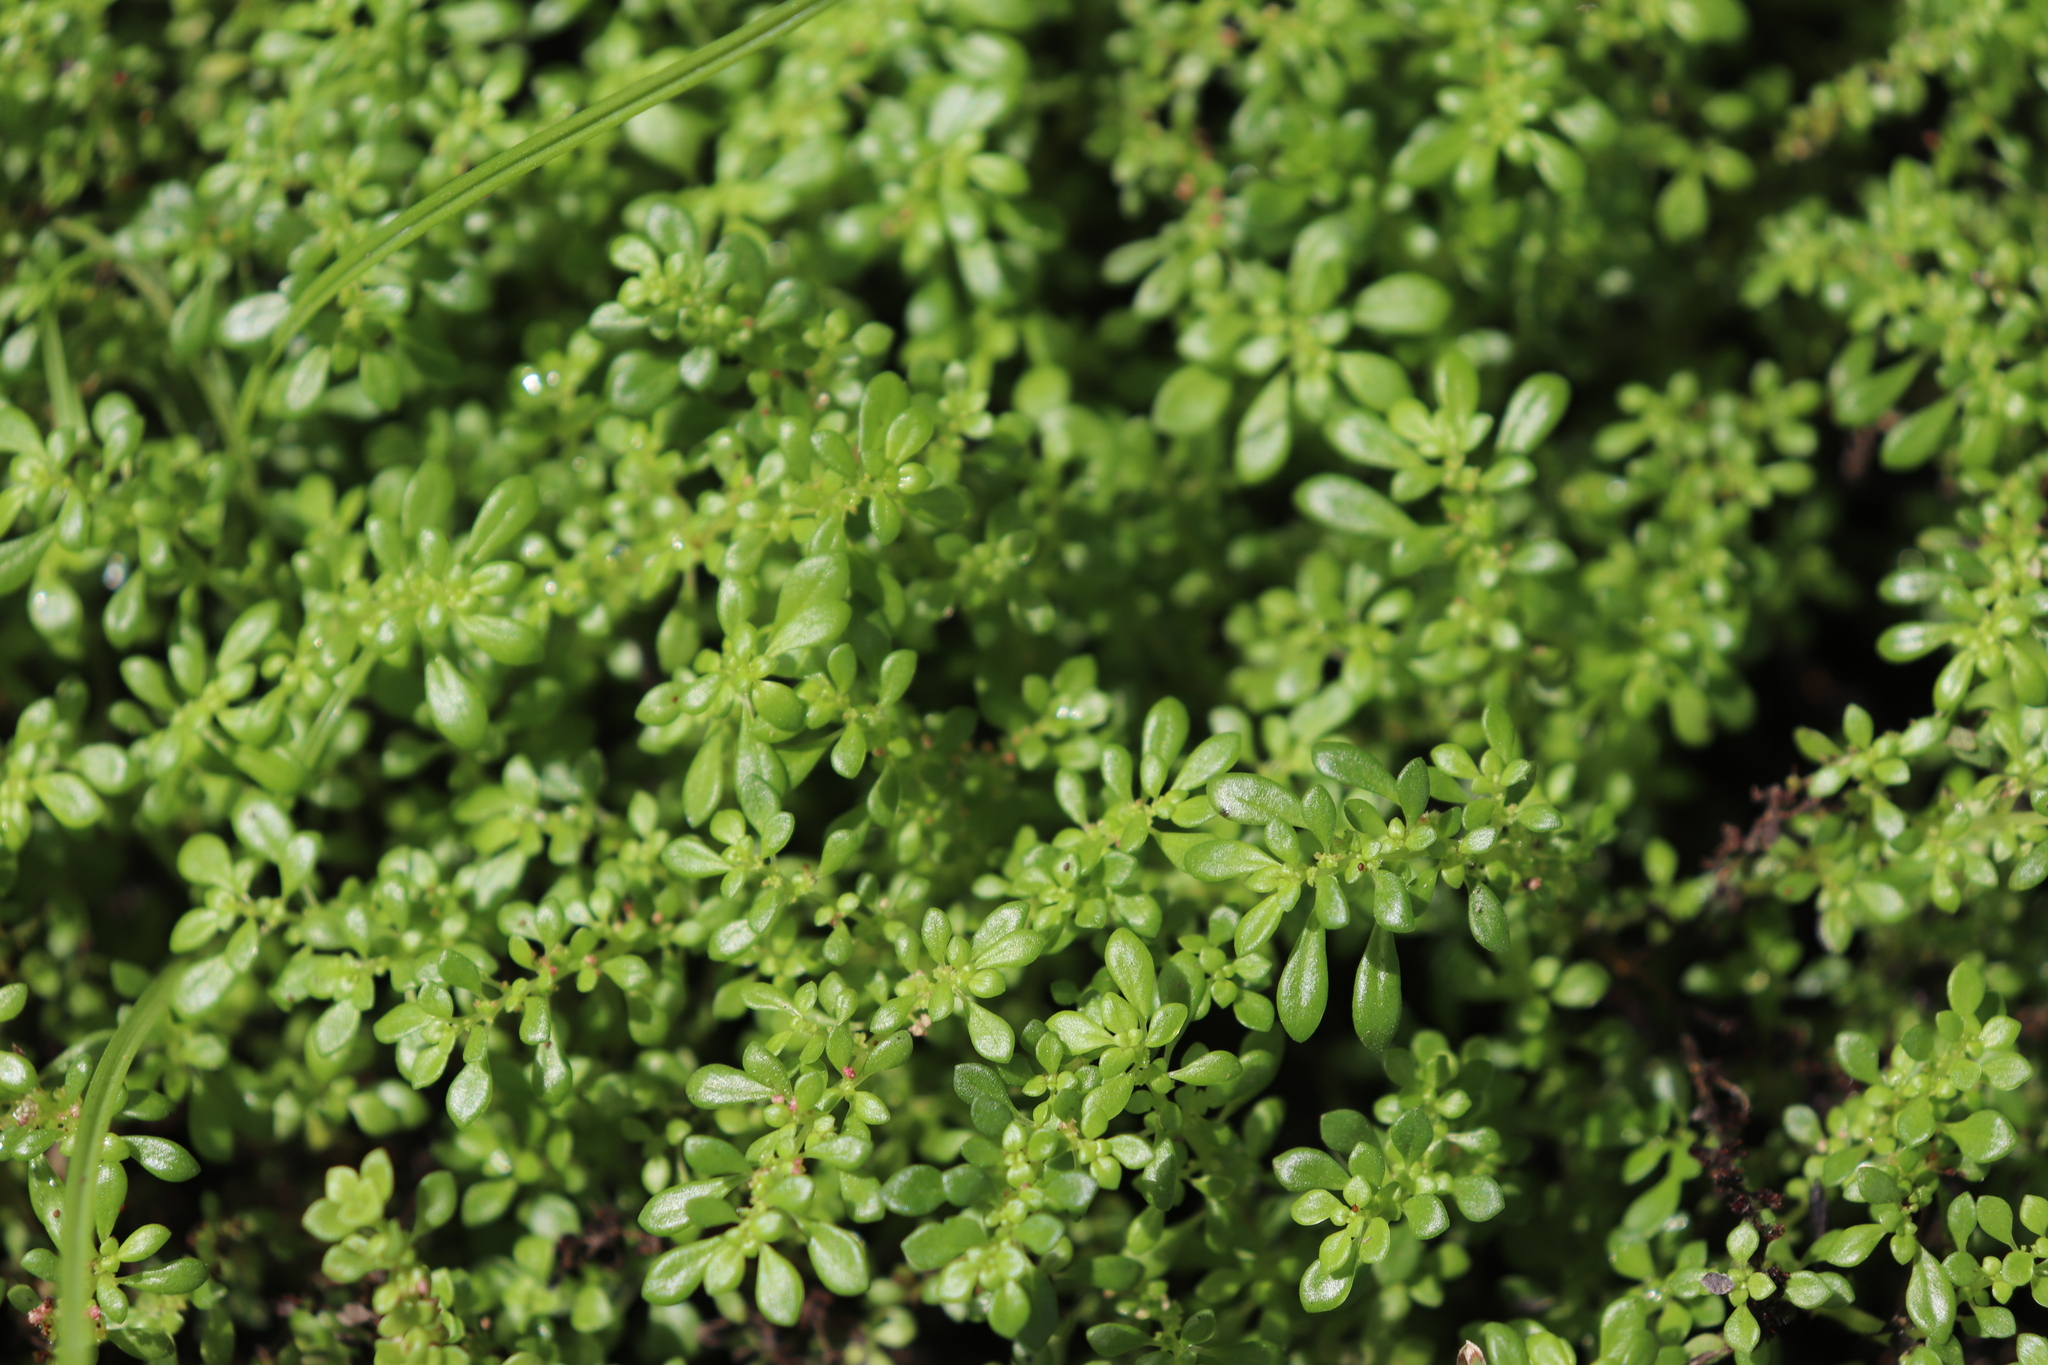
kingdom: Plantae
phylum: Tracheophyta
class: Magnoliopsida
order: Rosales
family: Urticaceae
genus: Pilea
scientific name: Pilea microphylla
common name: Artillery-plant
